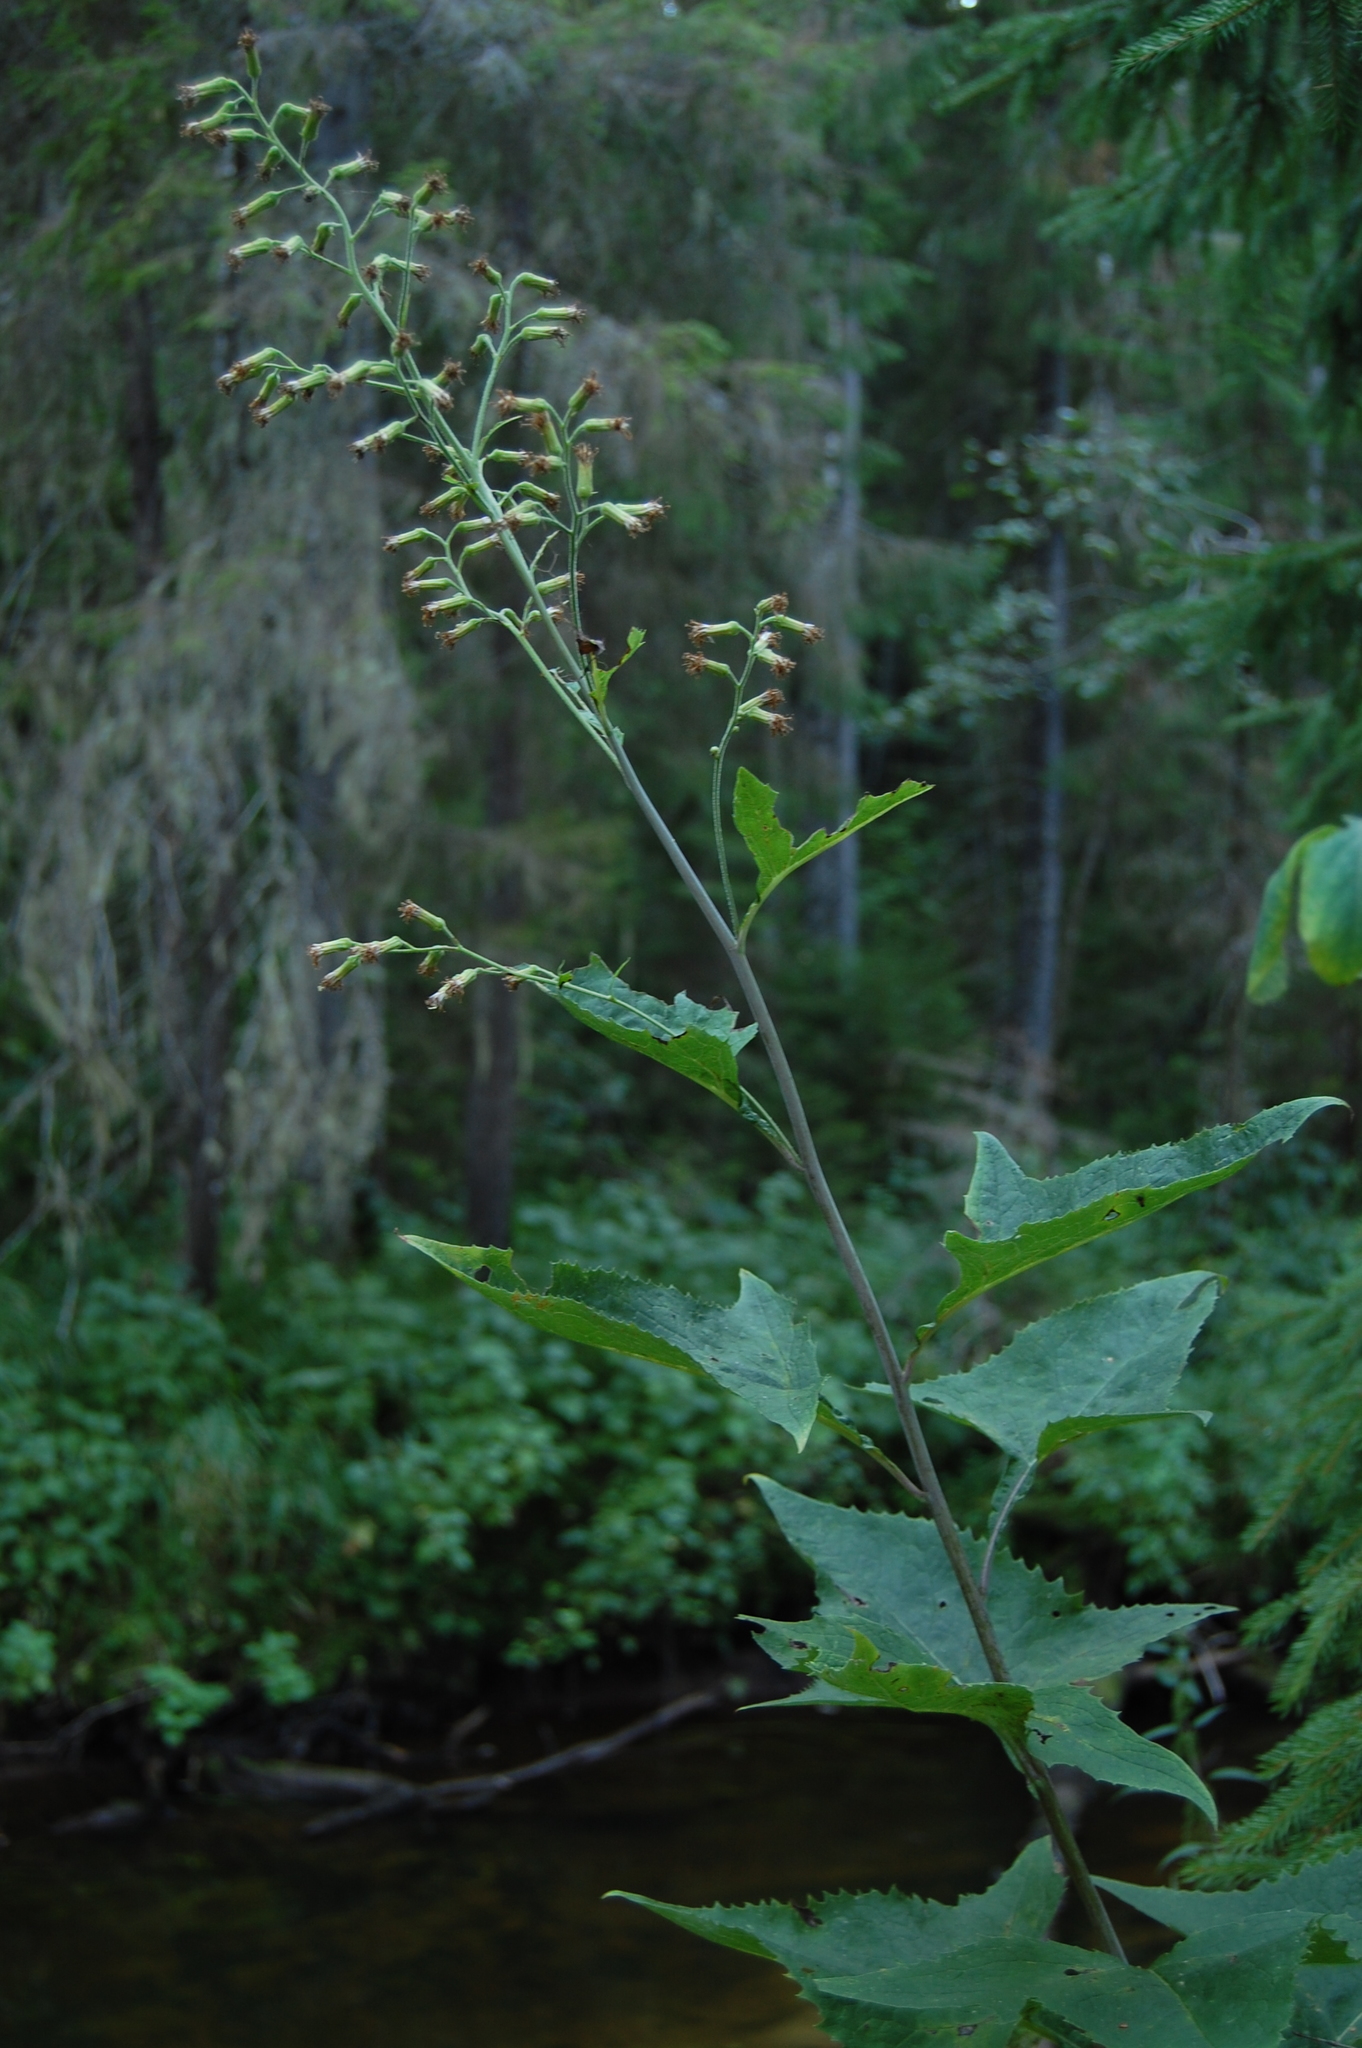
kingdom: Plantae
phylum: Tracheophyta
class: Magnoliopsida
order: Asterales
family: Asteraceae
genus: Parasenecio
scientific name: Parasenecio hastatus
